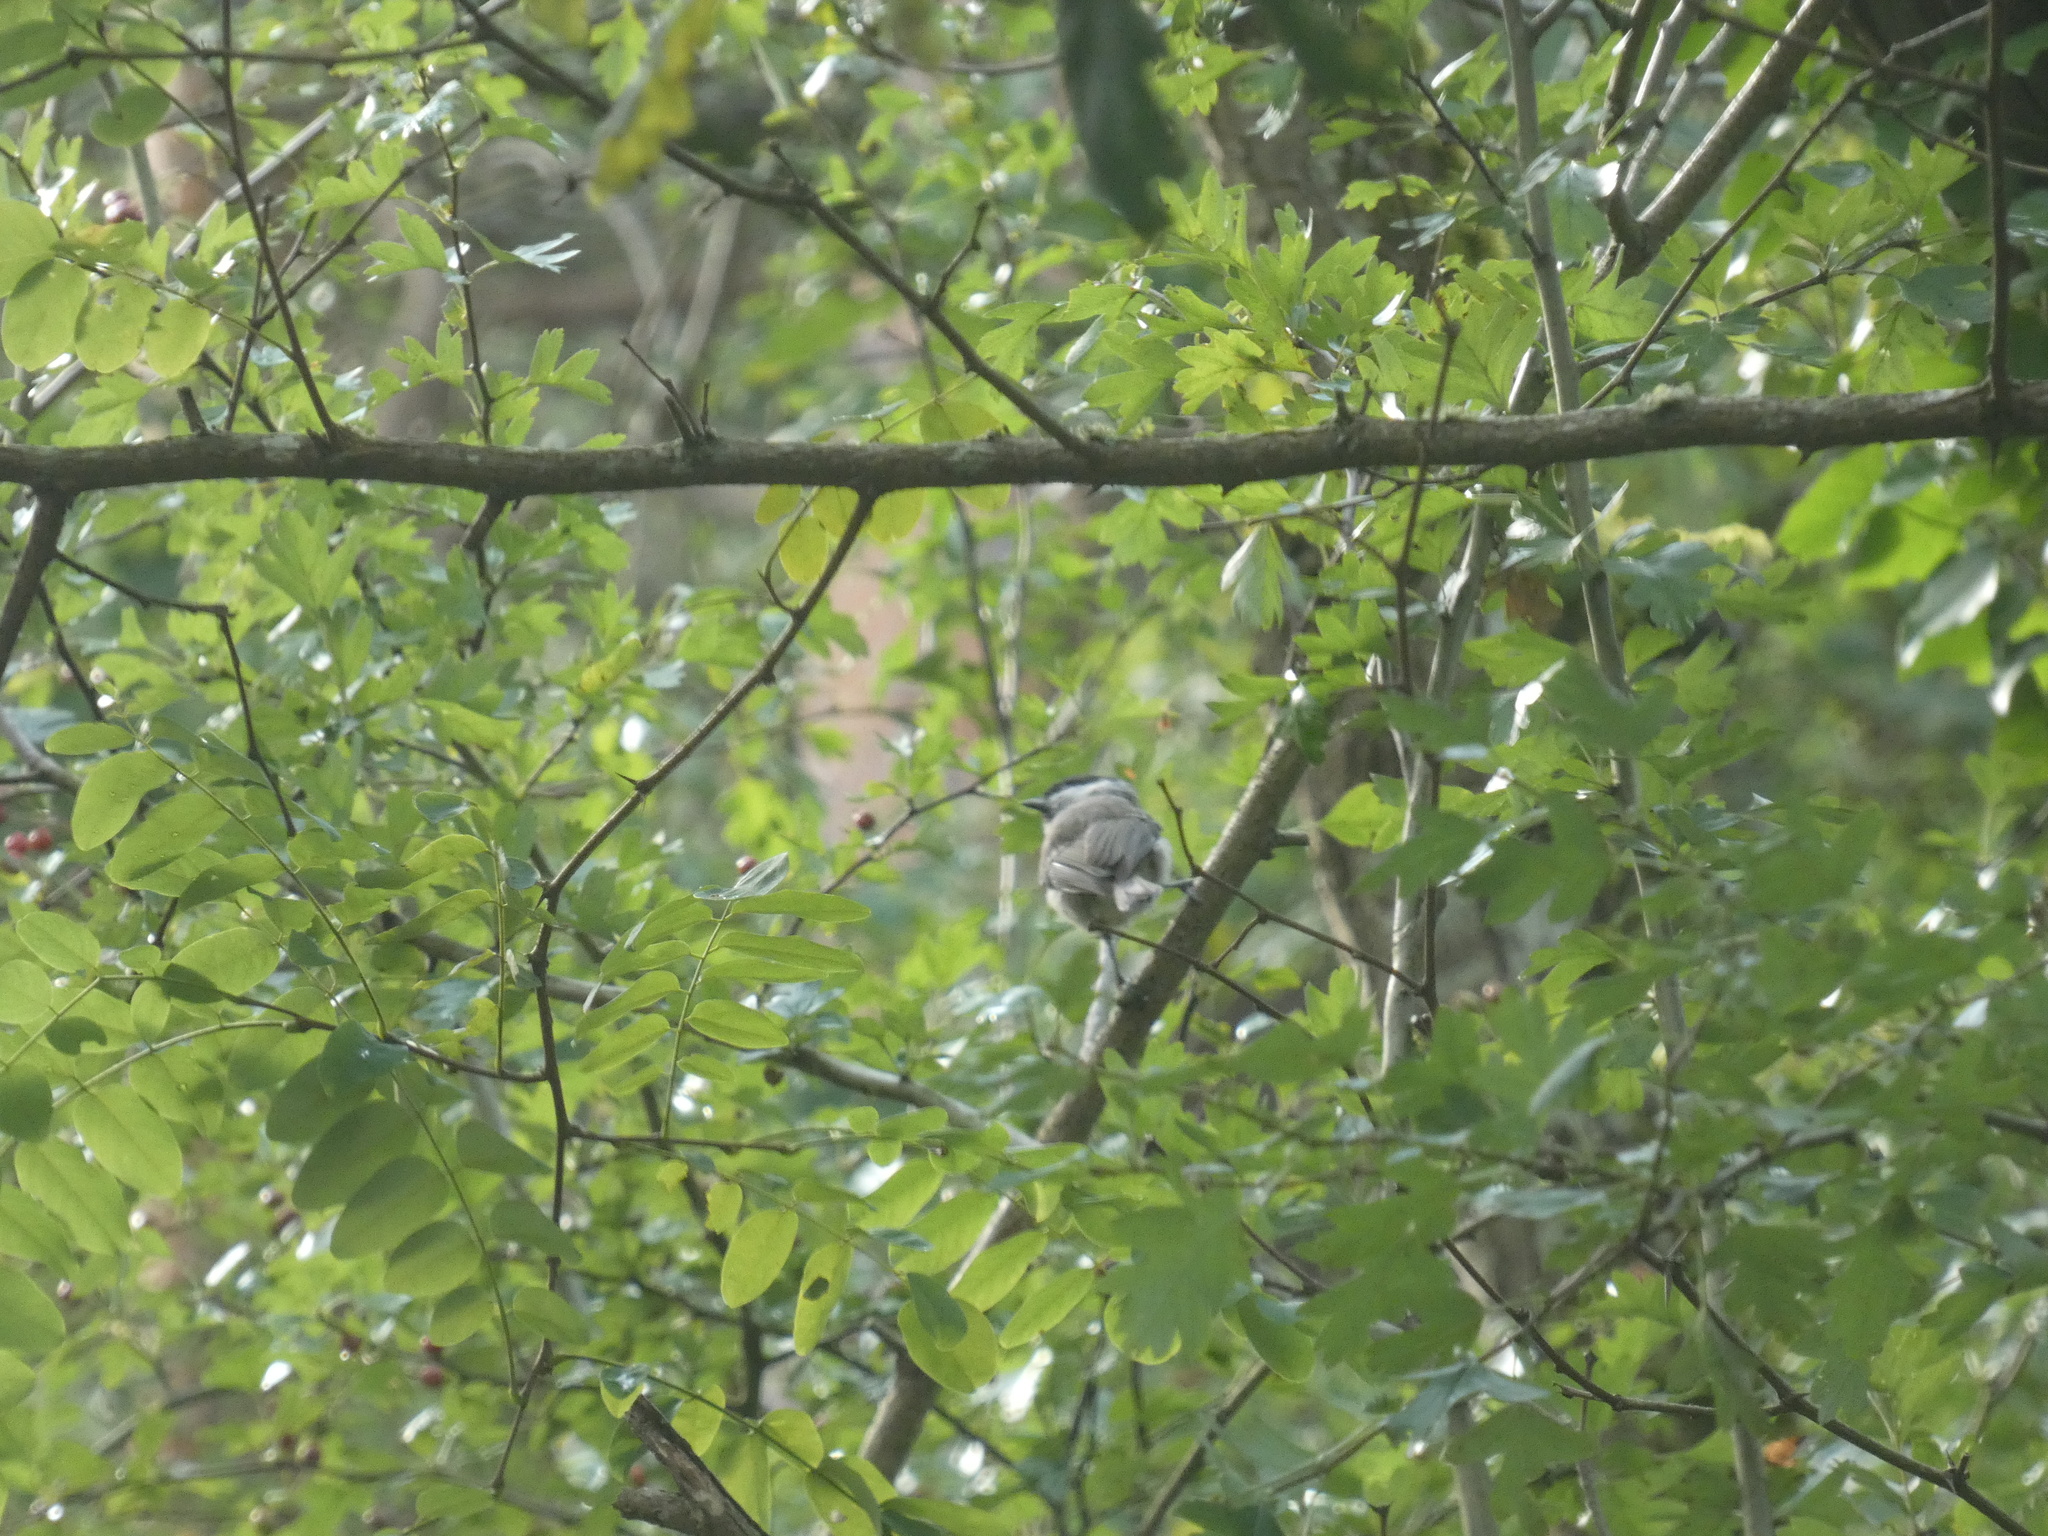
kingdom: Animalia
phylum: Chordata
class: Aves
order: Passeriformes
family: Paridae
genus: Poecile
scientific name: Poecile palustris
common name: Marsh tit
